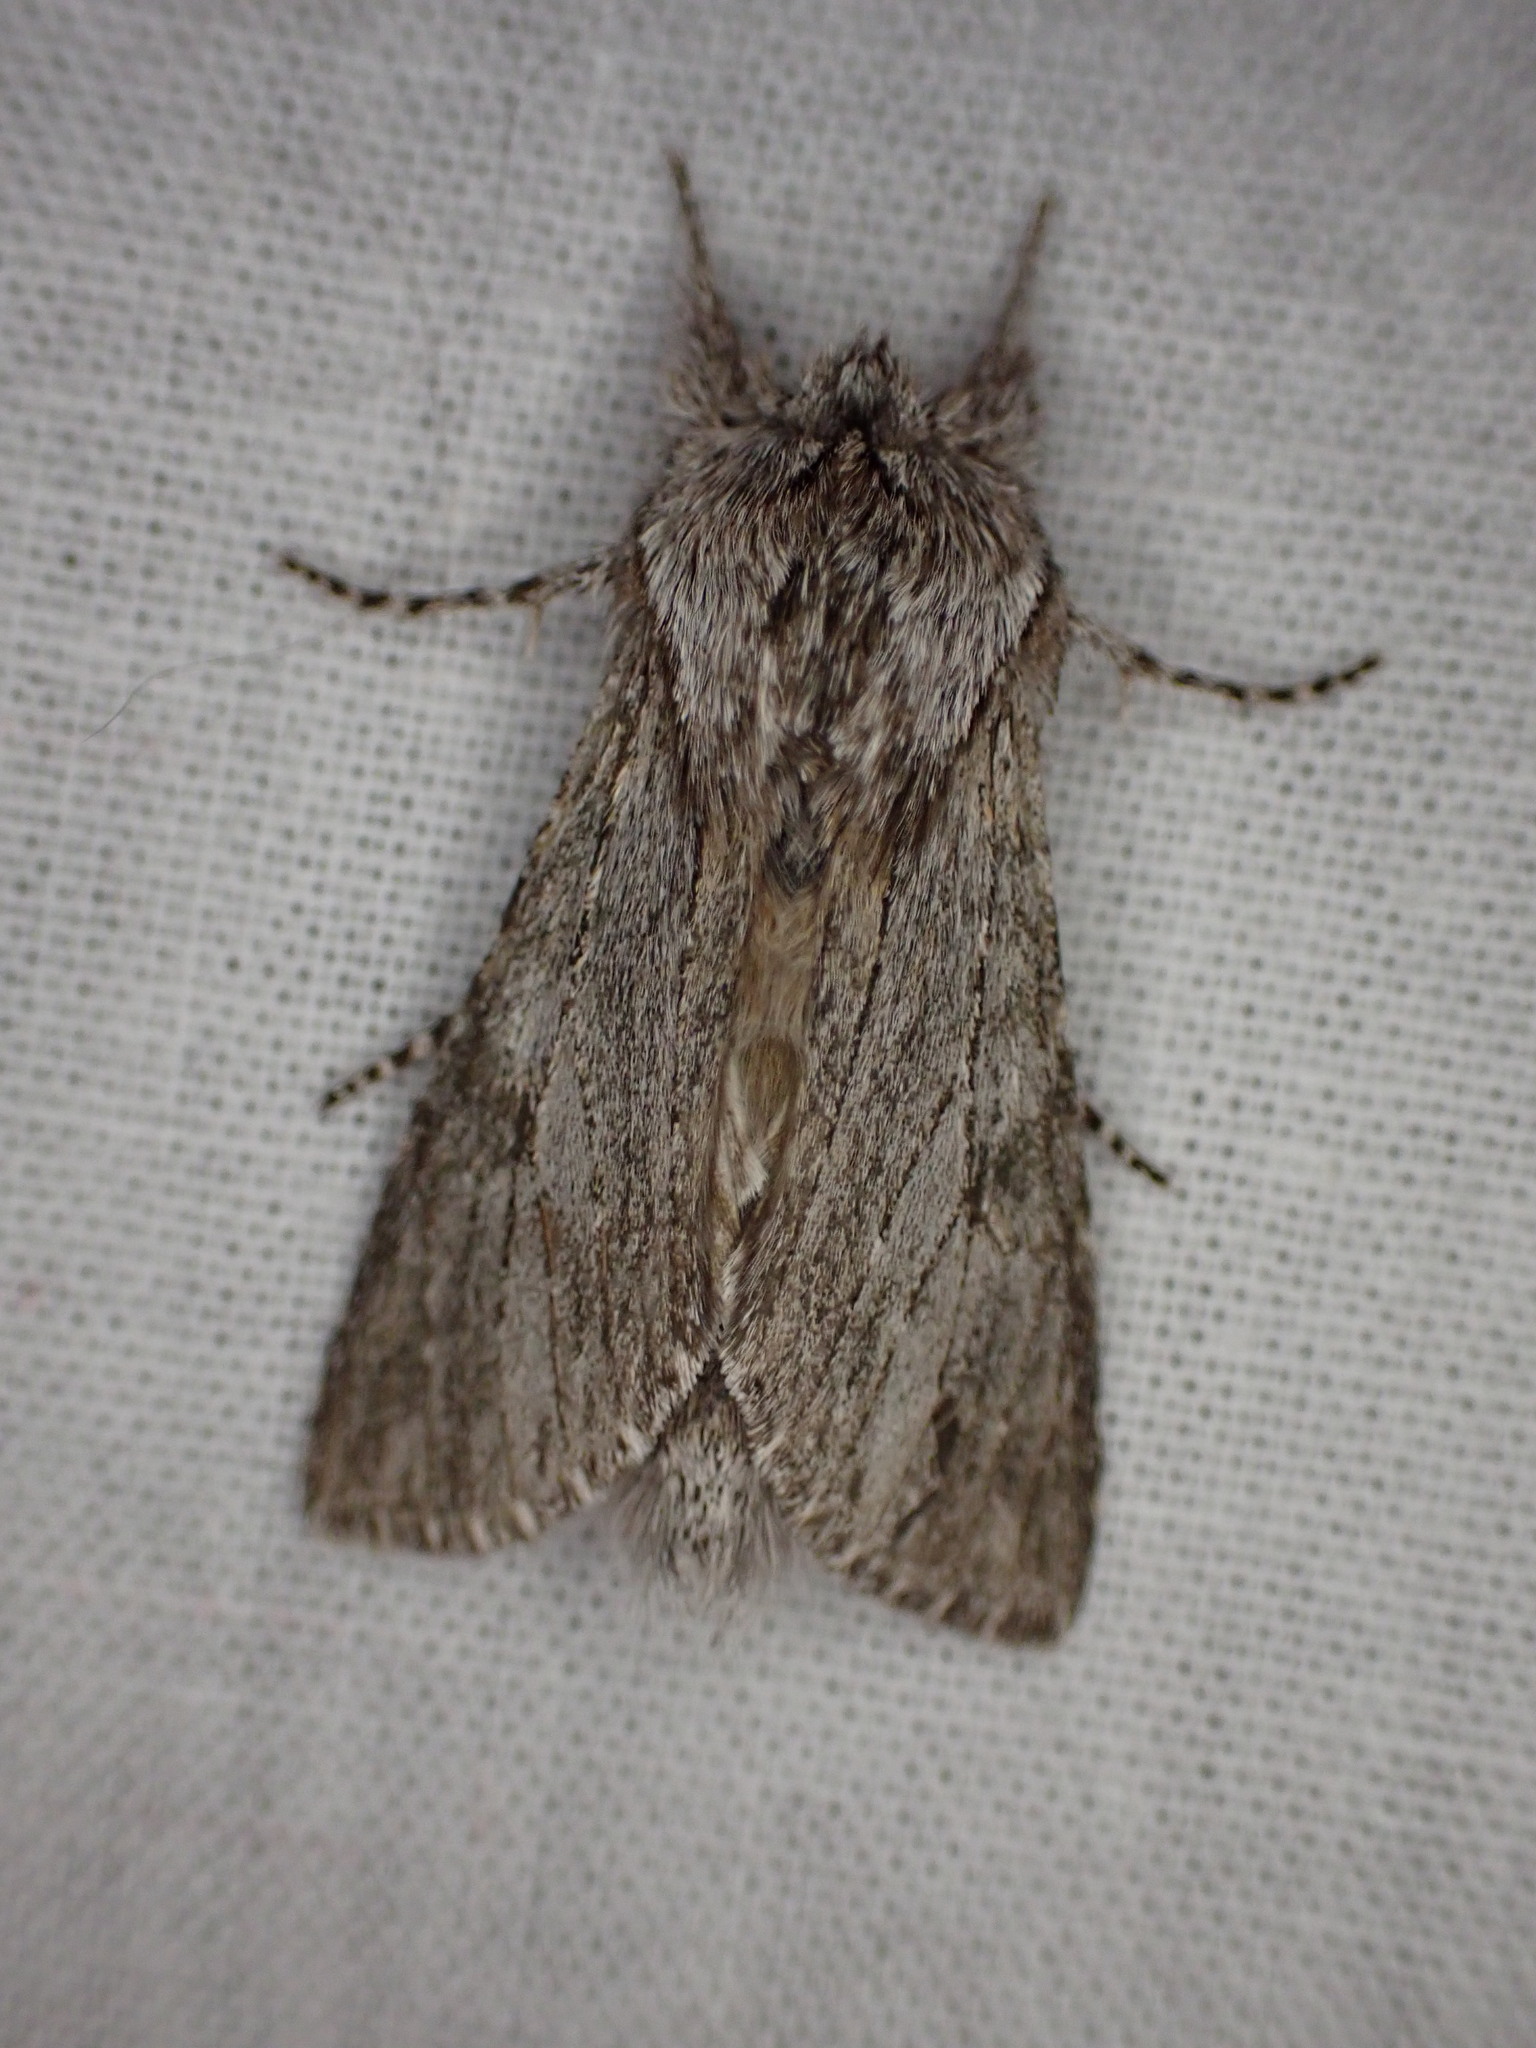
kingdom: Animalia
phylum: Arthropoda
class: Insecta
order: Lepidoptera
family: Notodontidae
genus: Dicranura
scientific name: Dicranura ulmi
